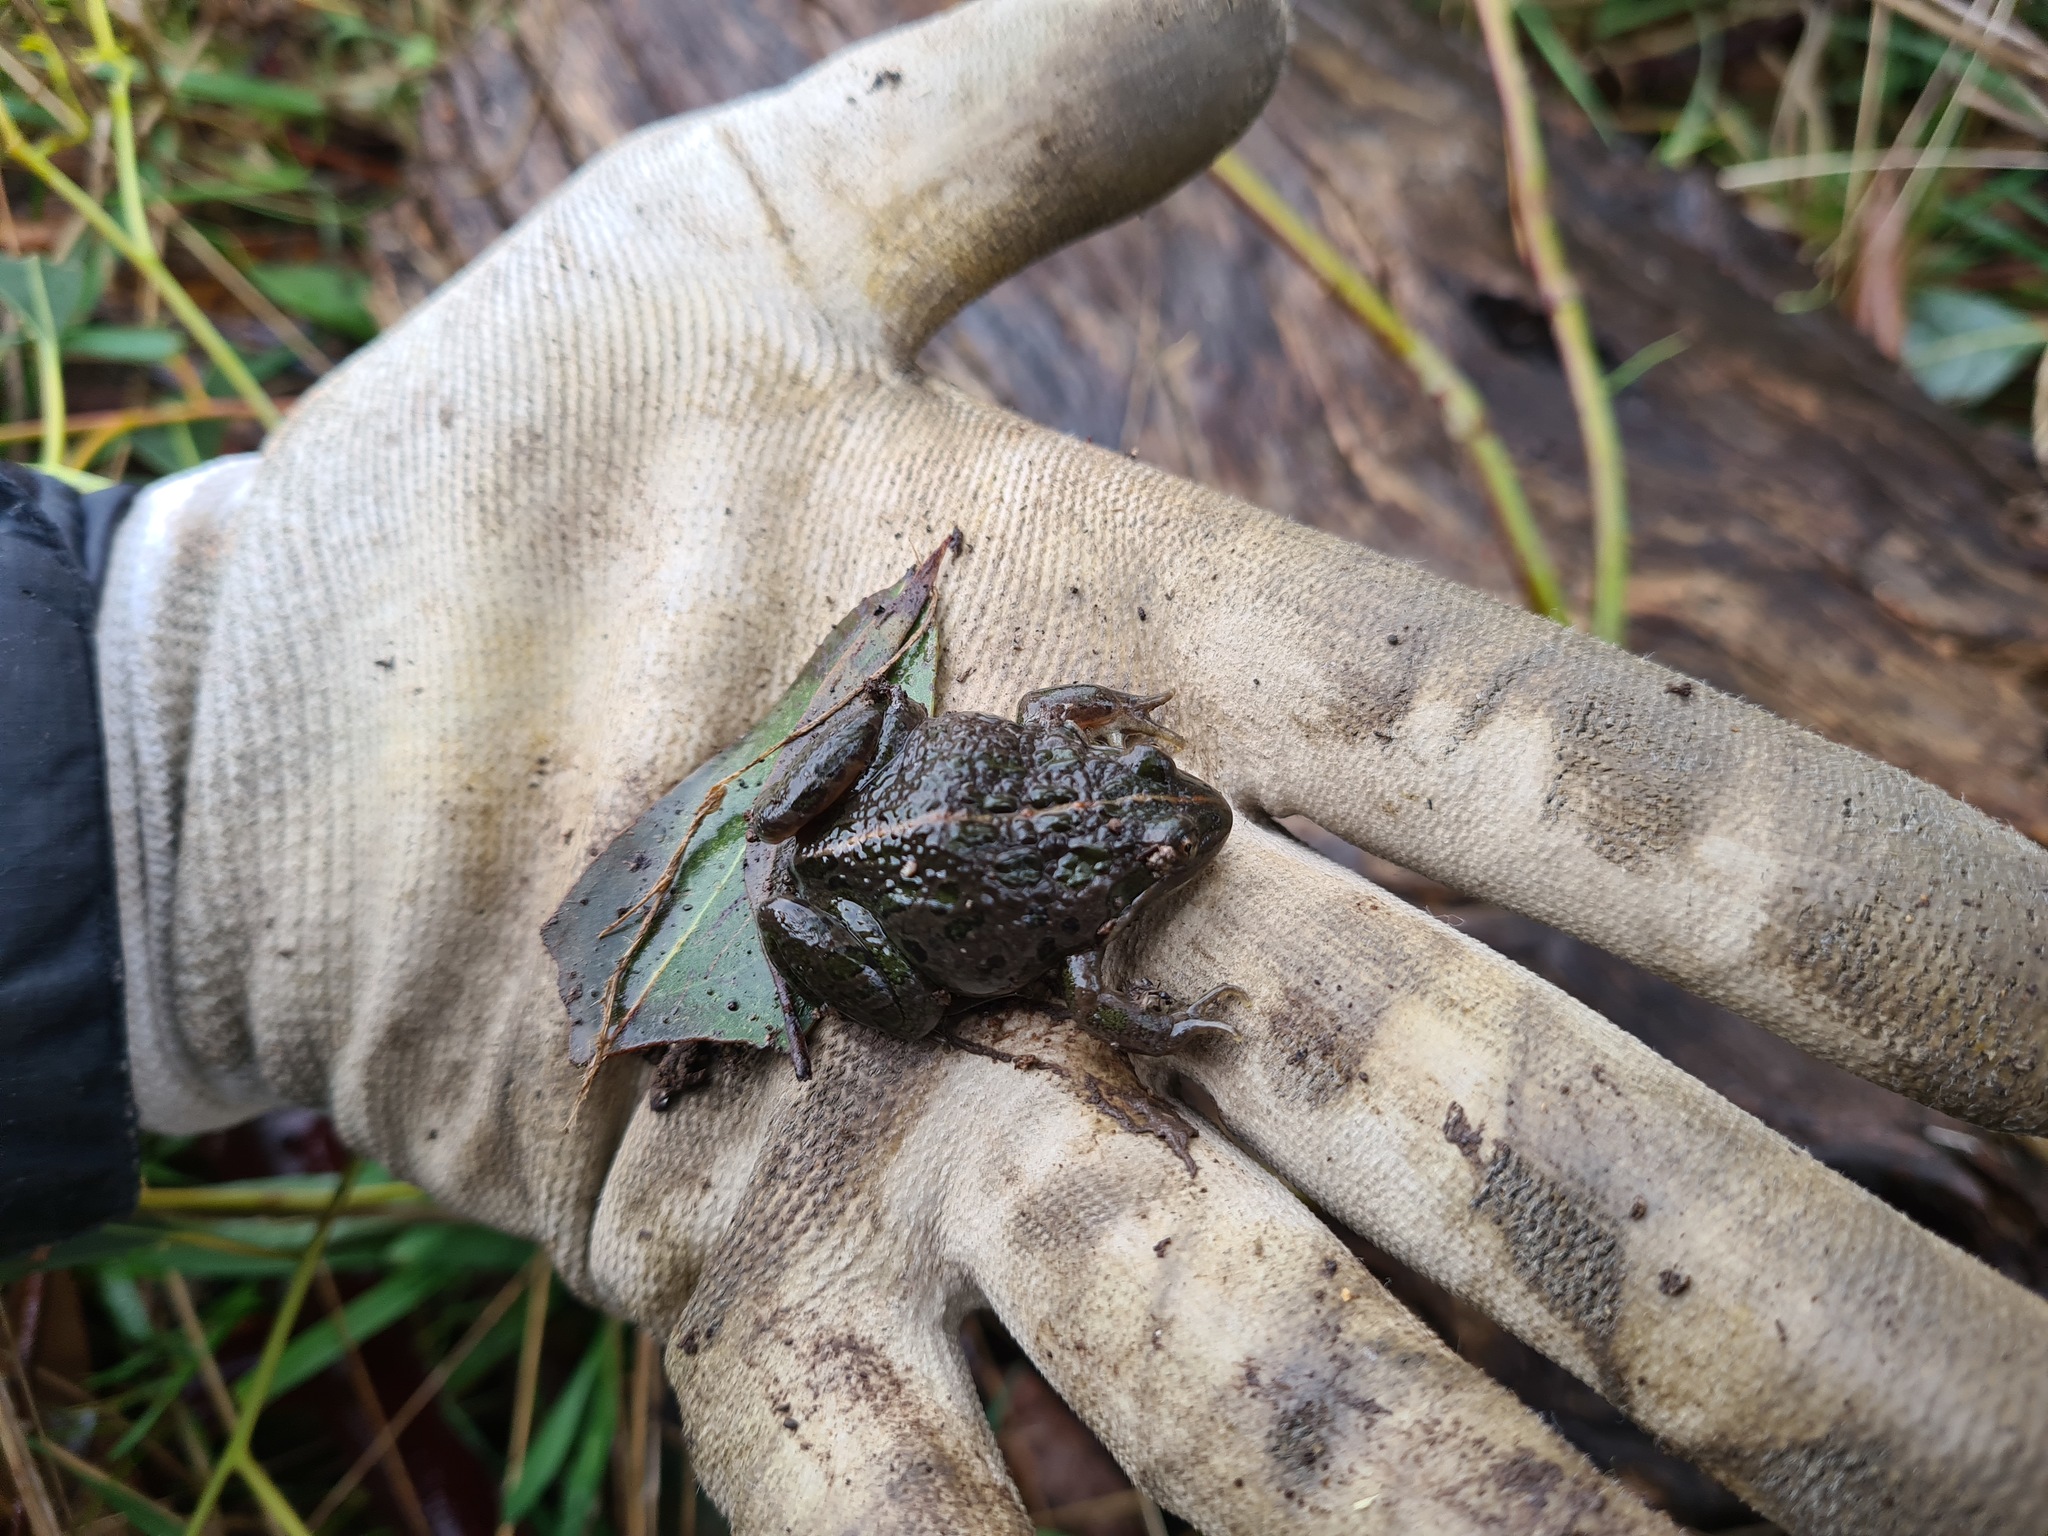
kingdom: Animalia
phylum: Chordata
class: Amphibia
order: Anura
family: Limnodynastidae
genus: Limnodynastes
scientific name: Limnodynastes tasmaniensis
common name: Spotted marsh frog
